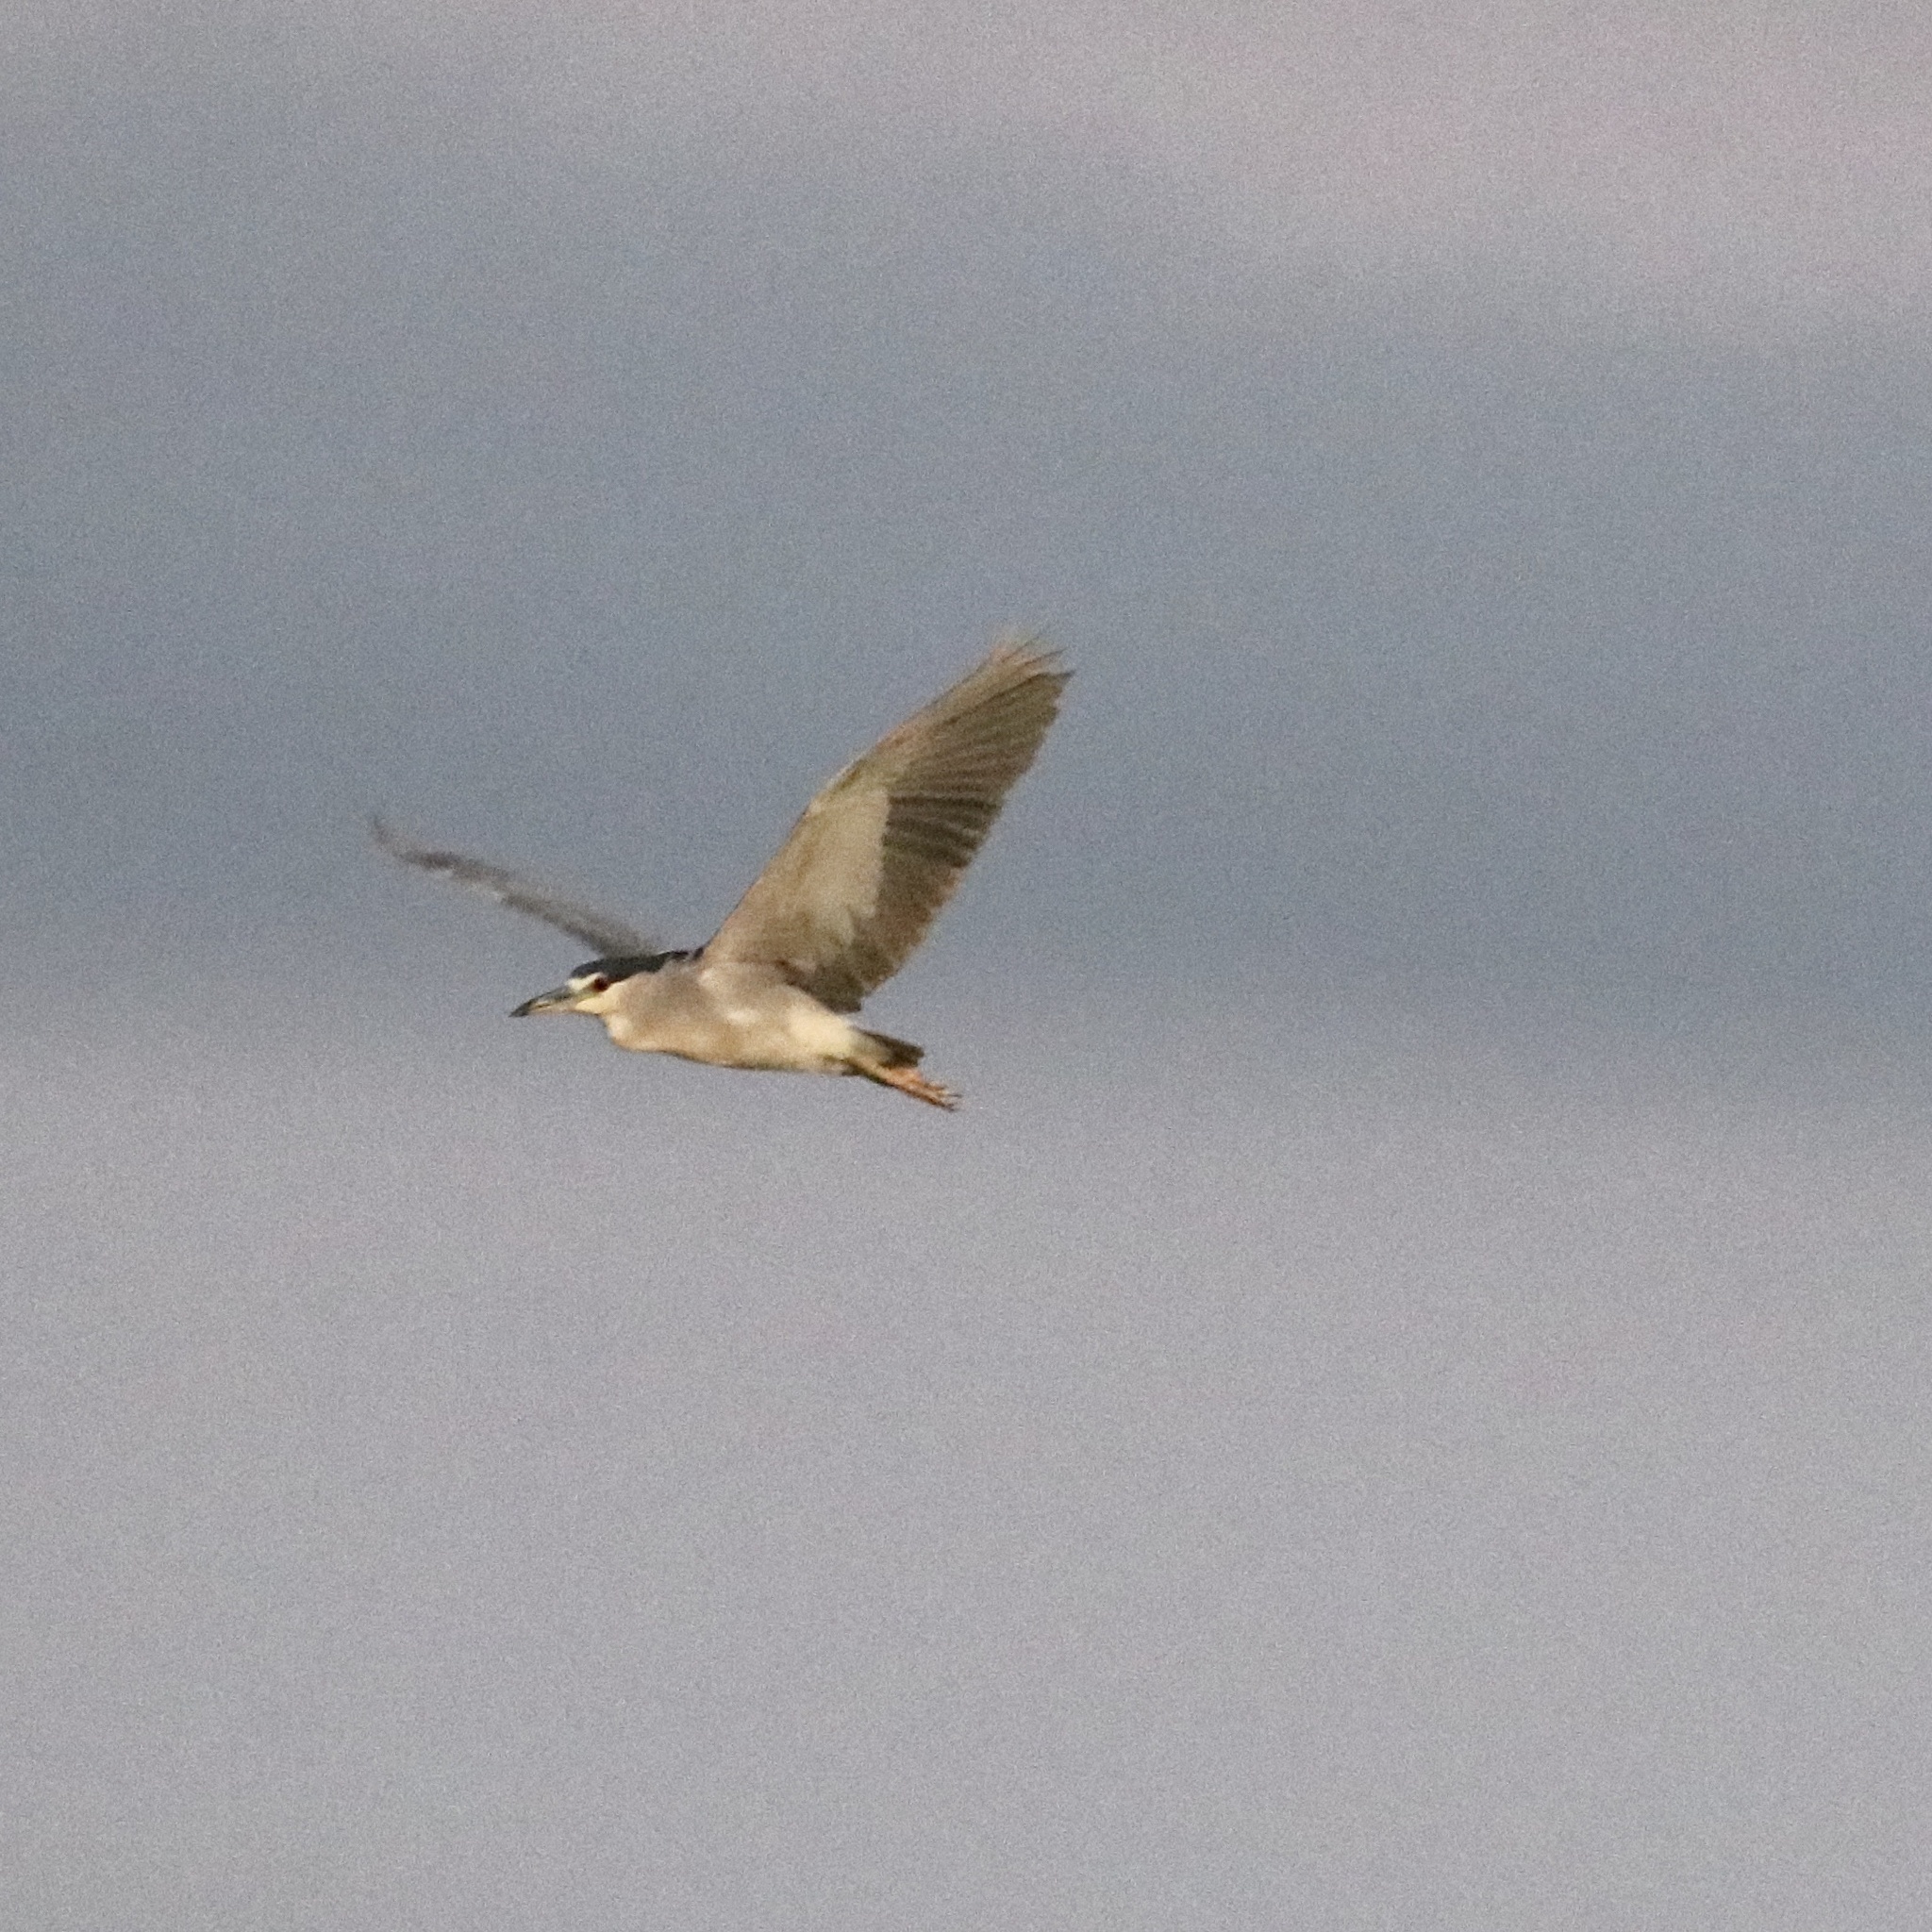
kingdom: Animalia
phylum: Chordata
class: Aves
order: Pelecaniformes
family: Ardeidae
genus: Nycticorax
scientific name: Nycticorax nycticorax
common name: Black-crowned night heron
